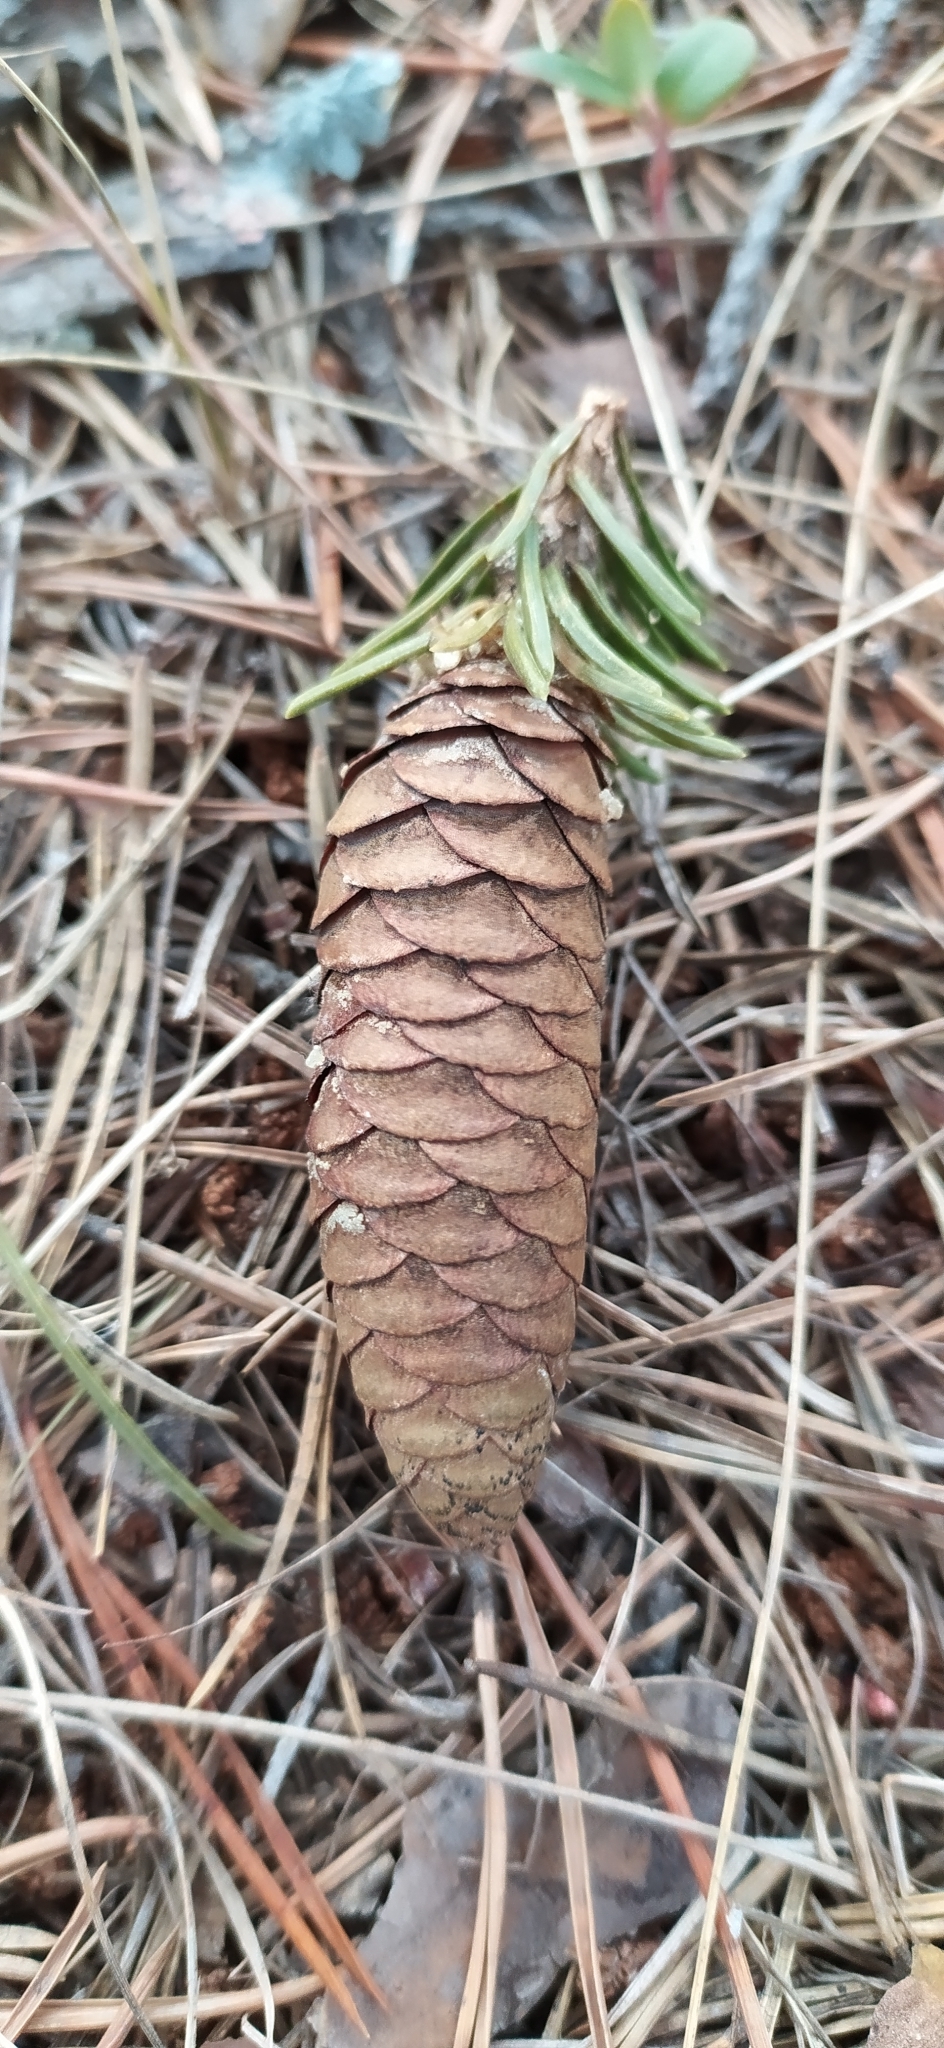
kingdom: Plantae
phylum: Tracheophyta
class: Pinopsida
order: Pinales
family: Pinaceae
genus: Picea
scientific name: Picea obovata
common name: Siberian spruce
